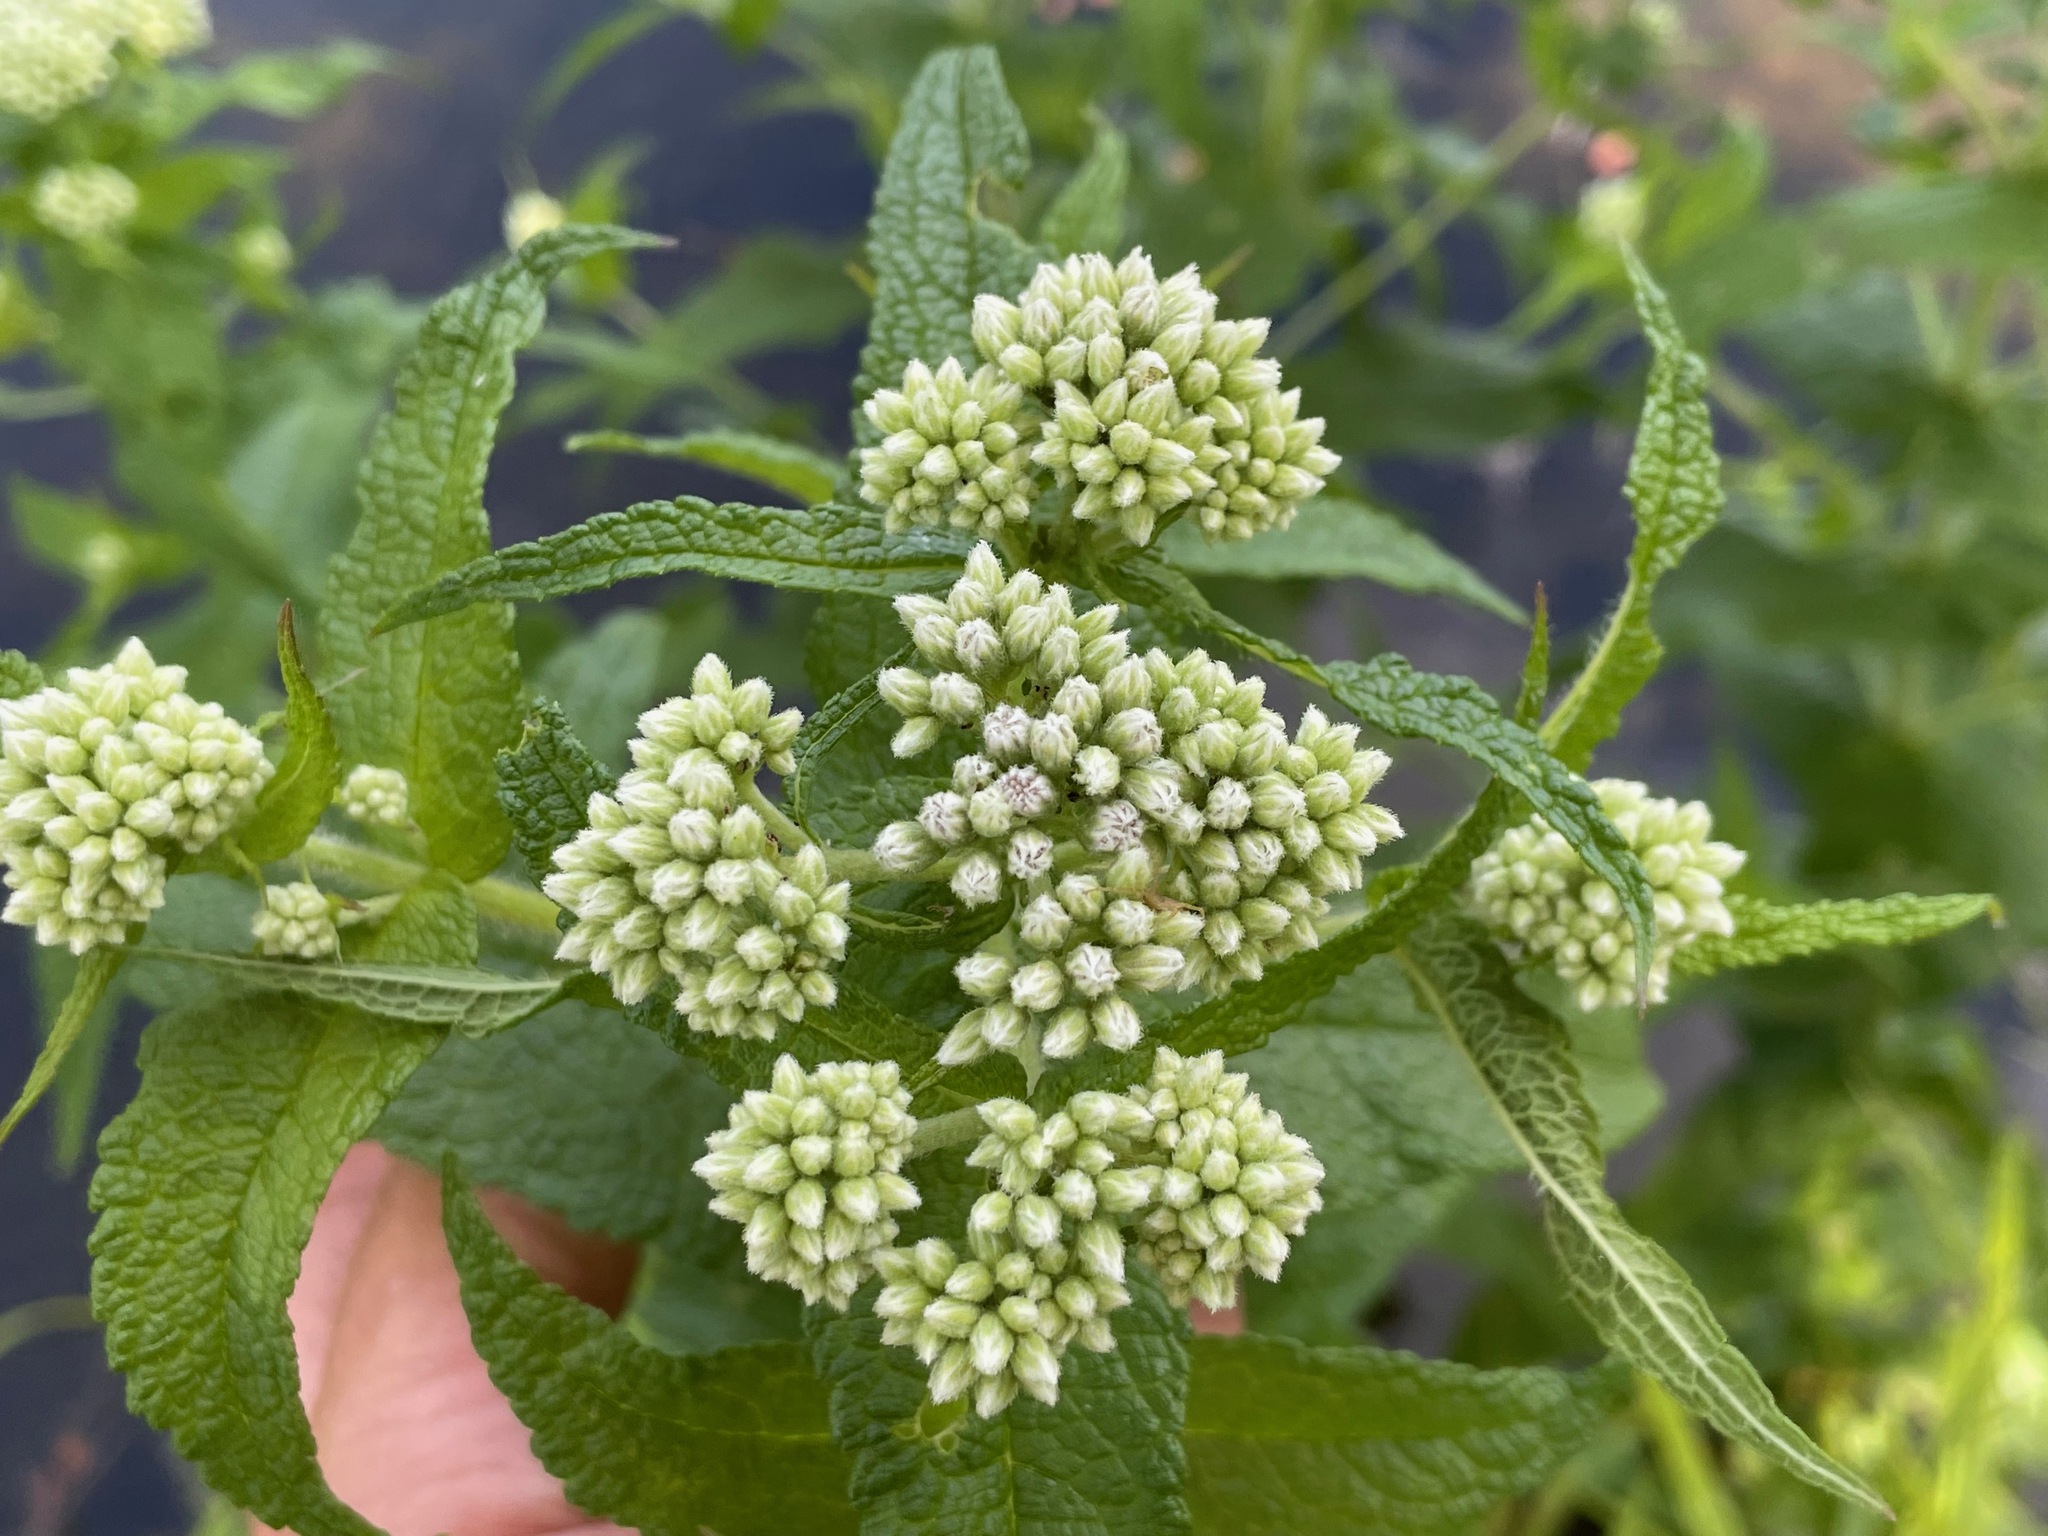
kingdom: Plantae
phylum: Tracheophyta
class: Magnoliopsida
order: Asterales
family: Asteraceae
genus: Eupatorium
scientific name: Eupatorium perfoliatum
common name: Boneset
